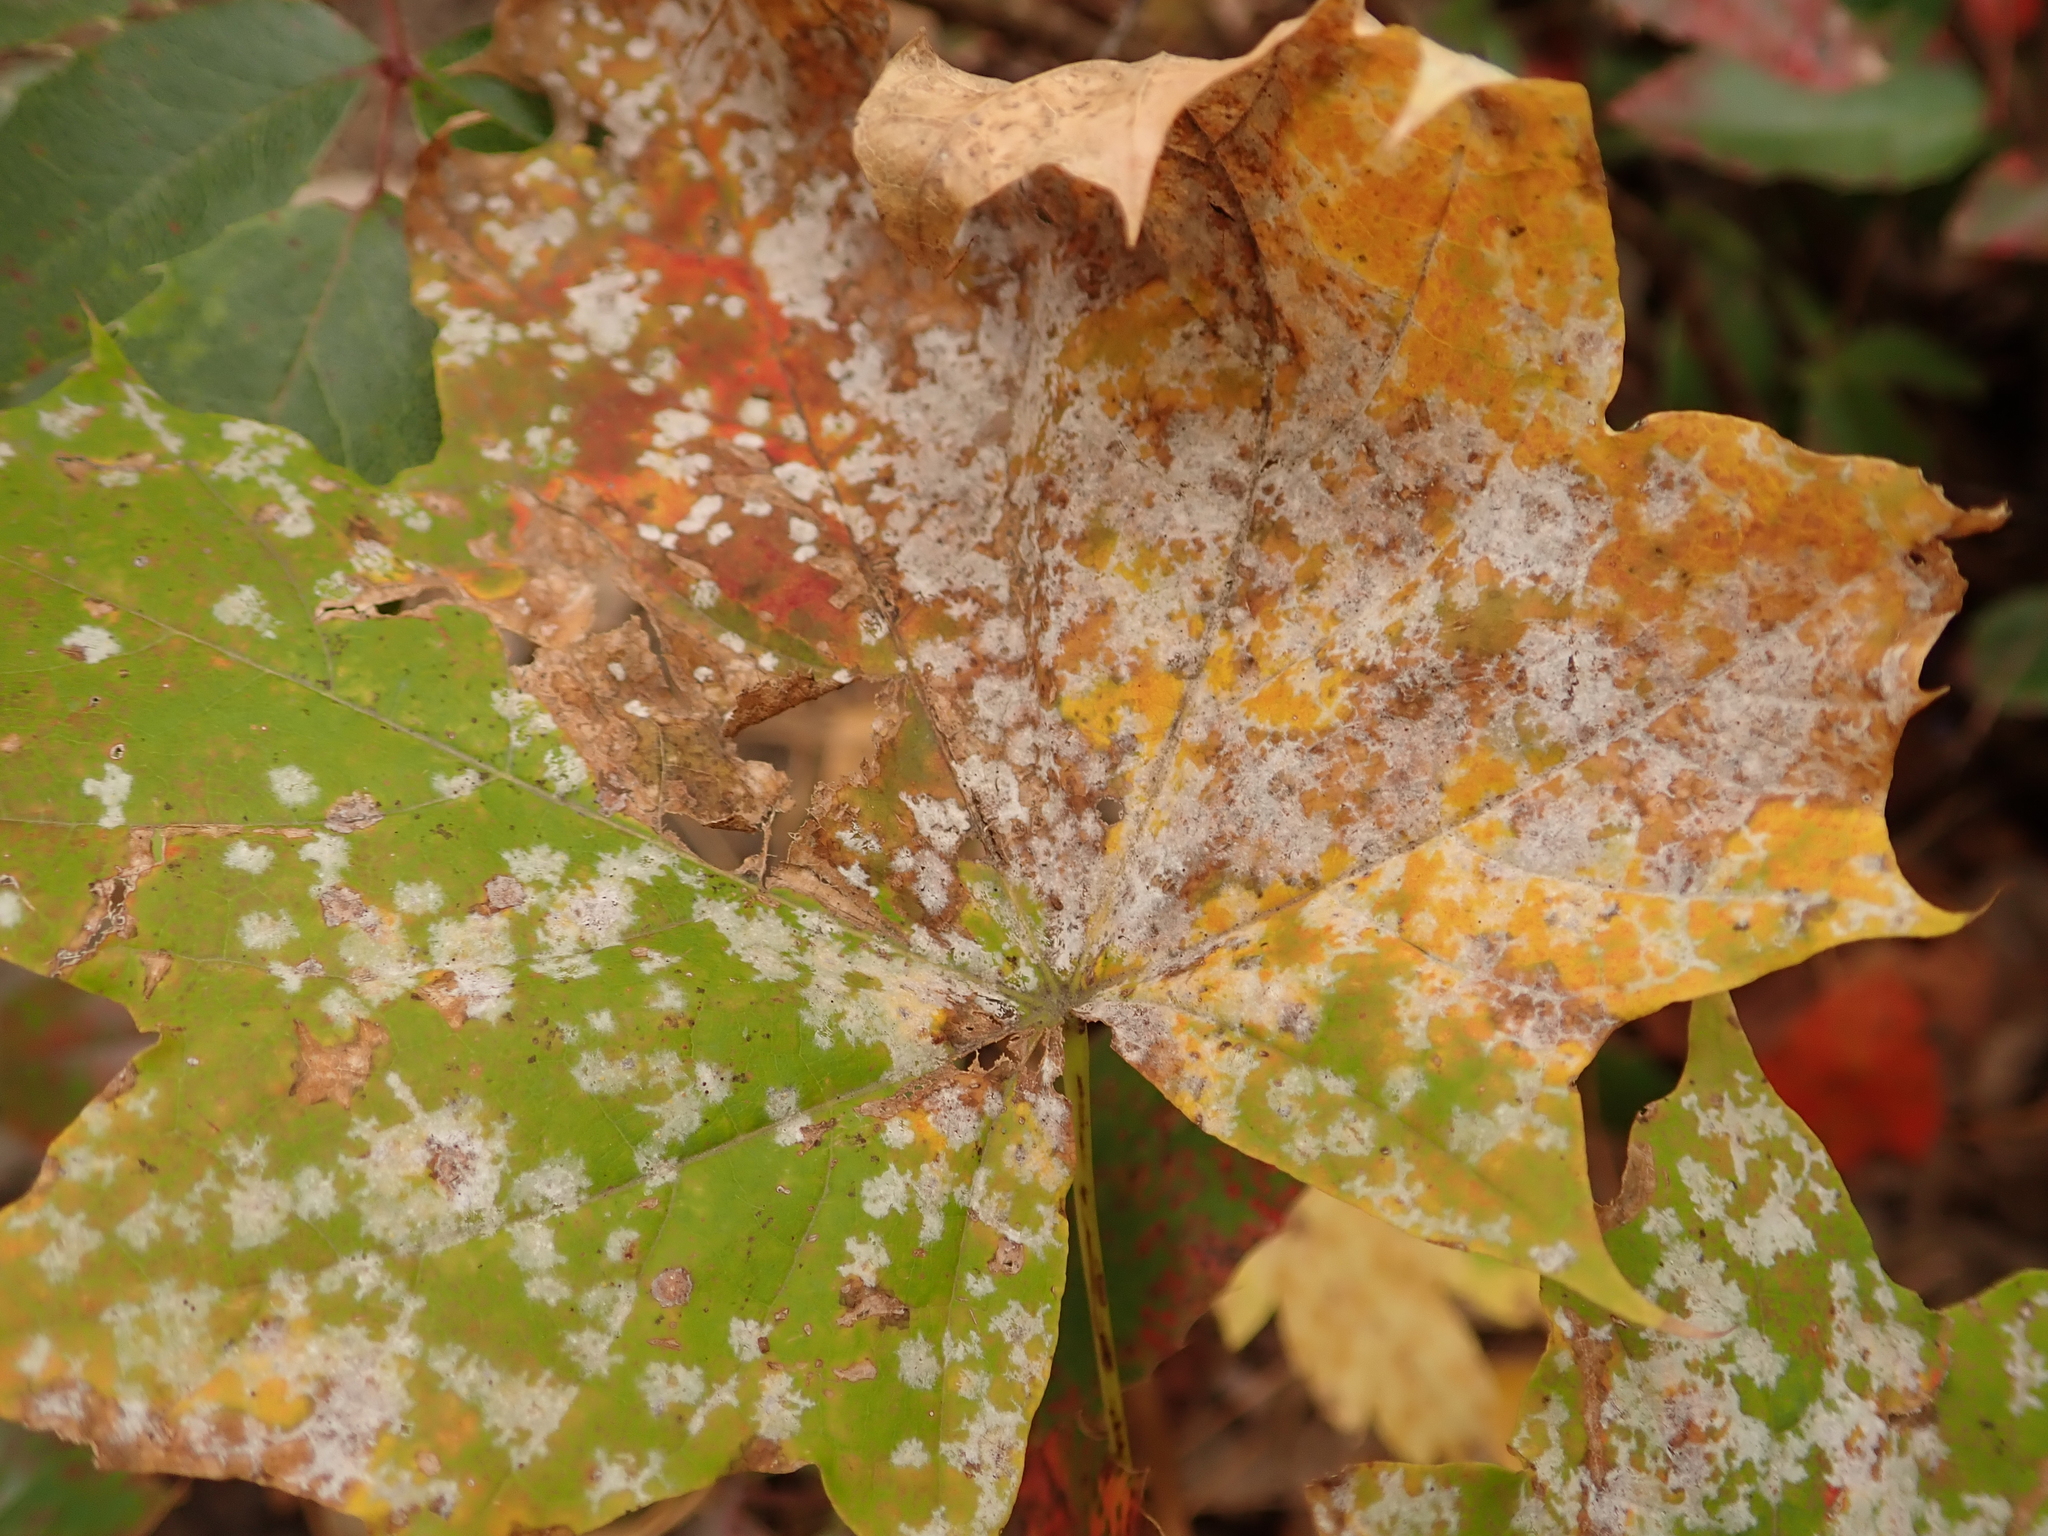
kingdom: Fungi
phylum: Ascomycota
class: Leotiomycetes
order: Helotiales
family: Erysiphaceae
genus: Sawadaea
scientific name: Sawadaea tulasnei
